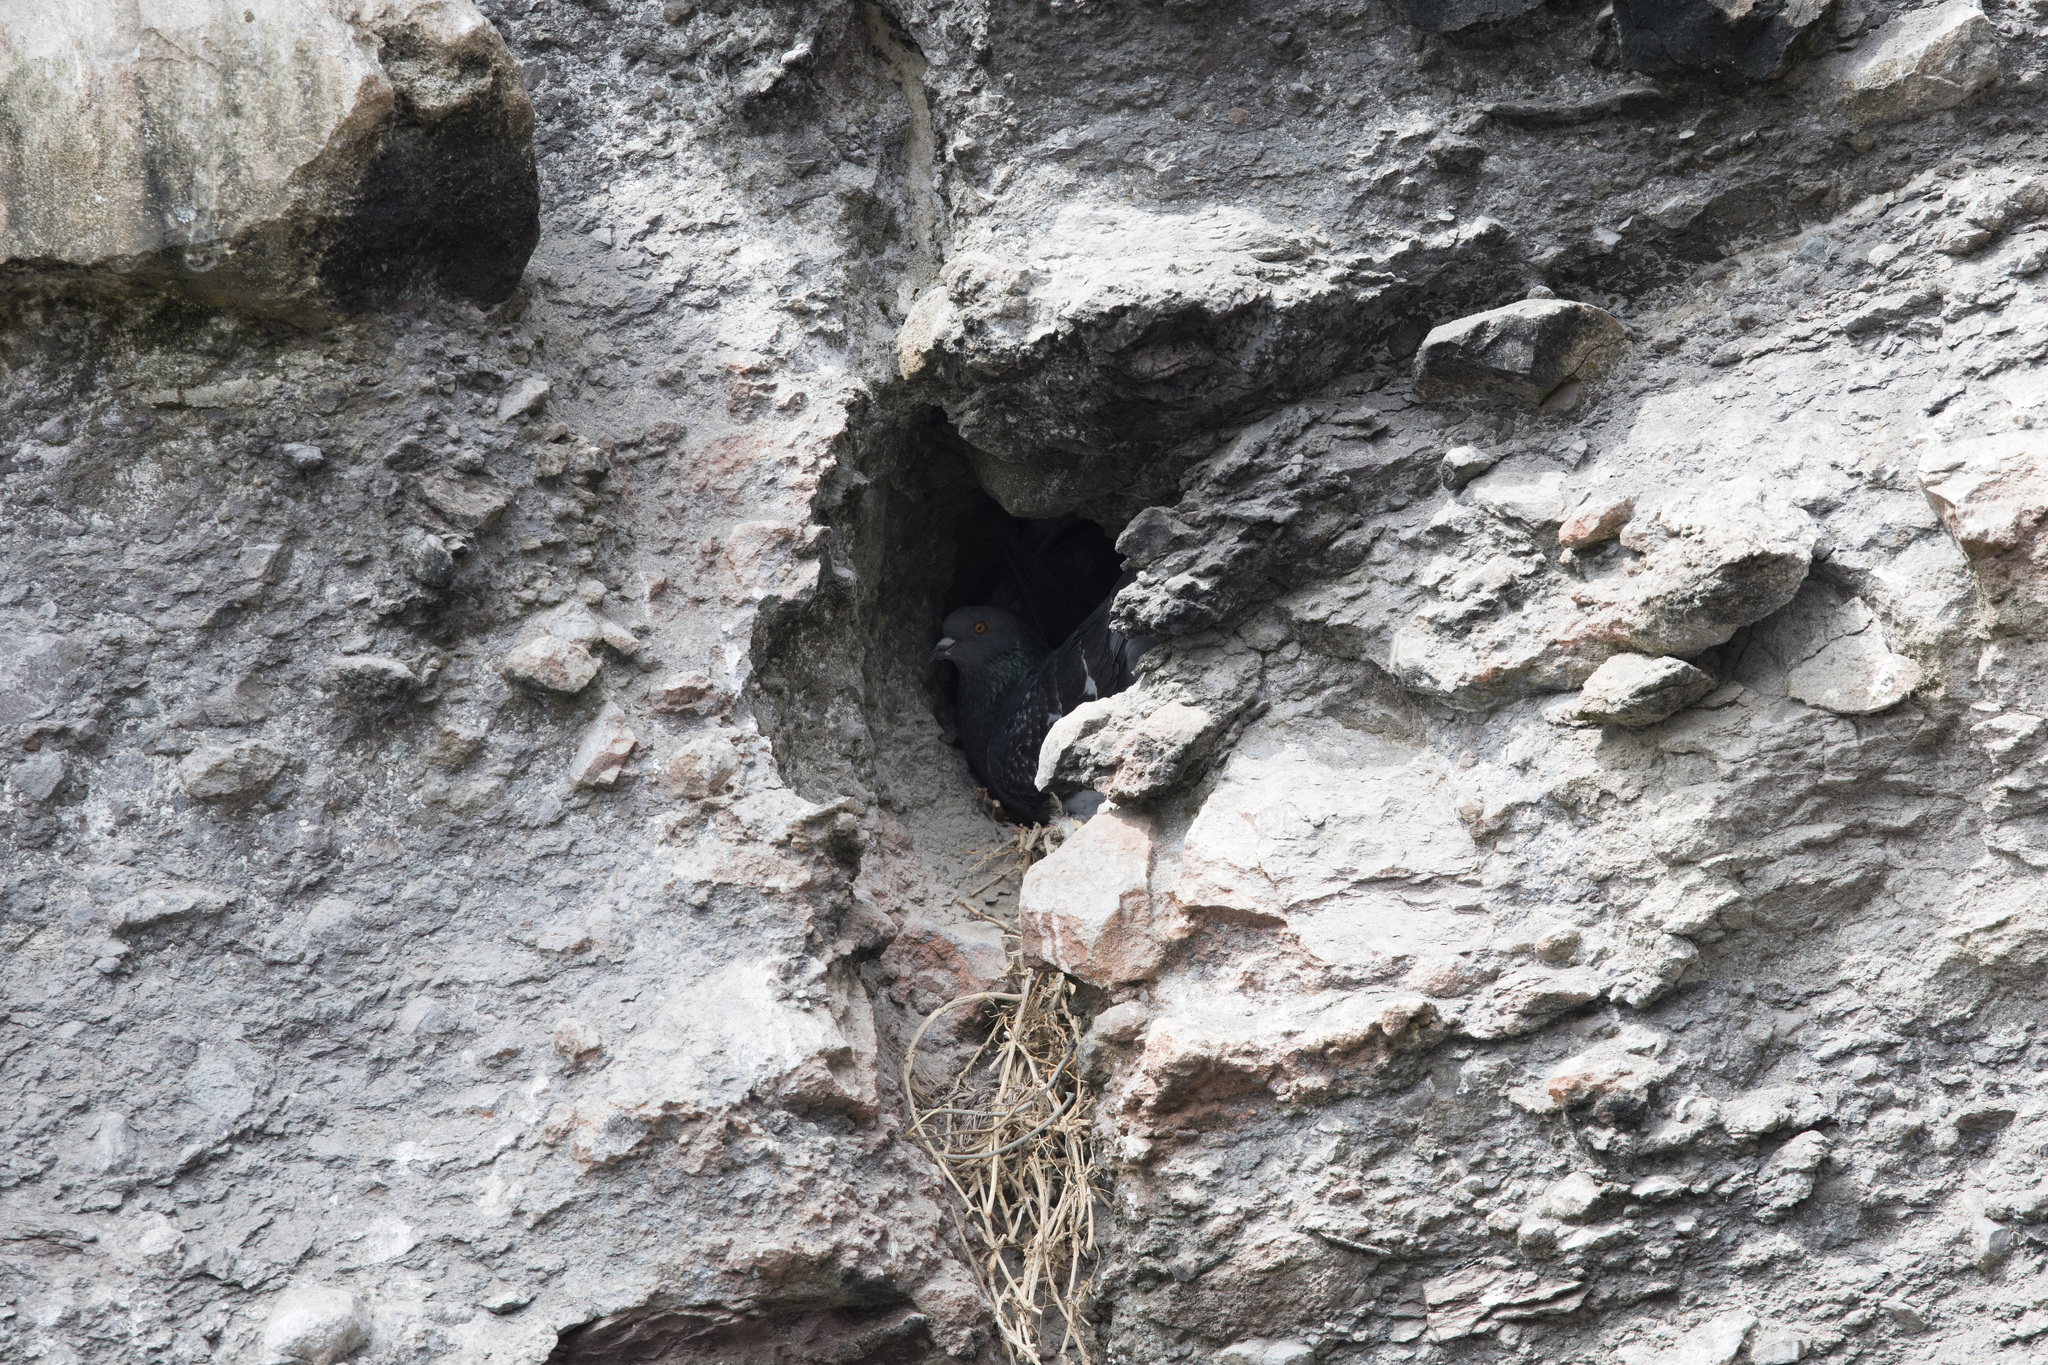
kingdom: Animalia
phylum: Chordata
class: Aves
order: Columbiformes
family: Columbidae
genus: Columba
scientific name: Columba livia
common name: Rock pigeon
